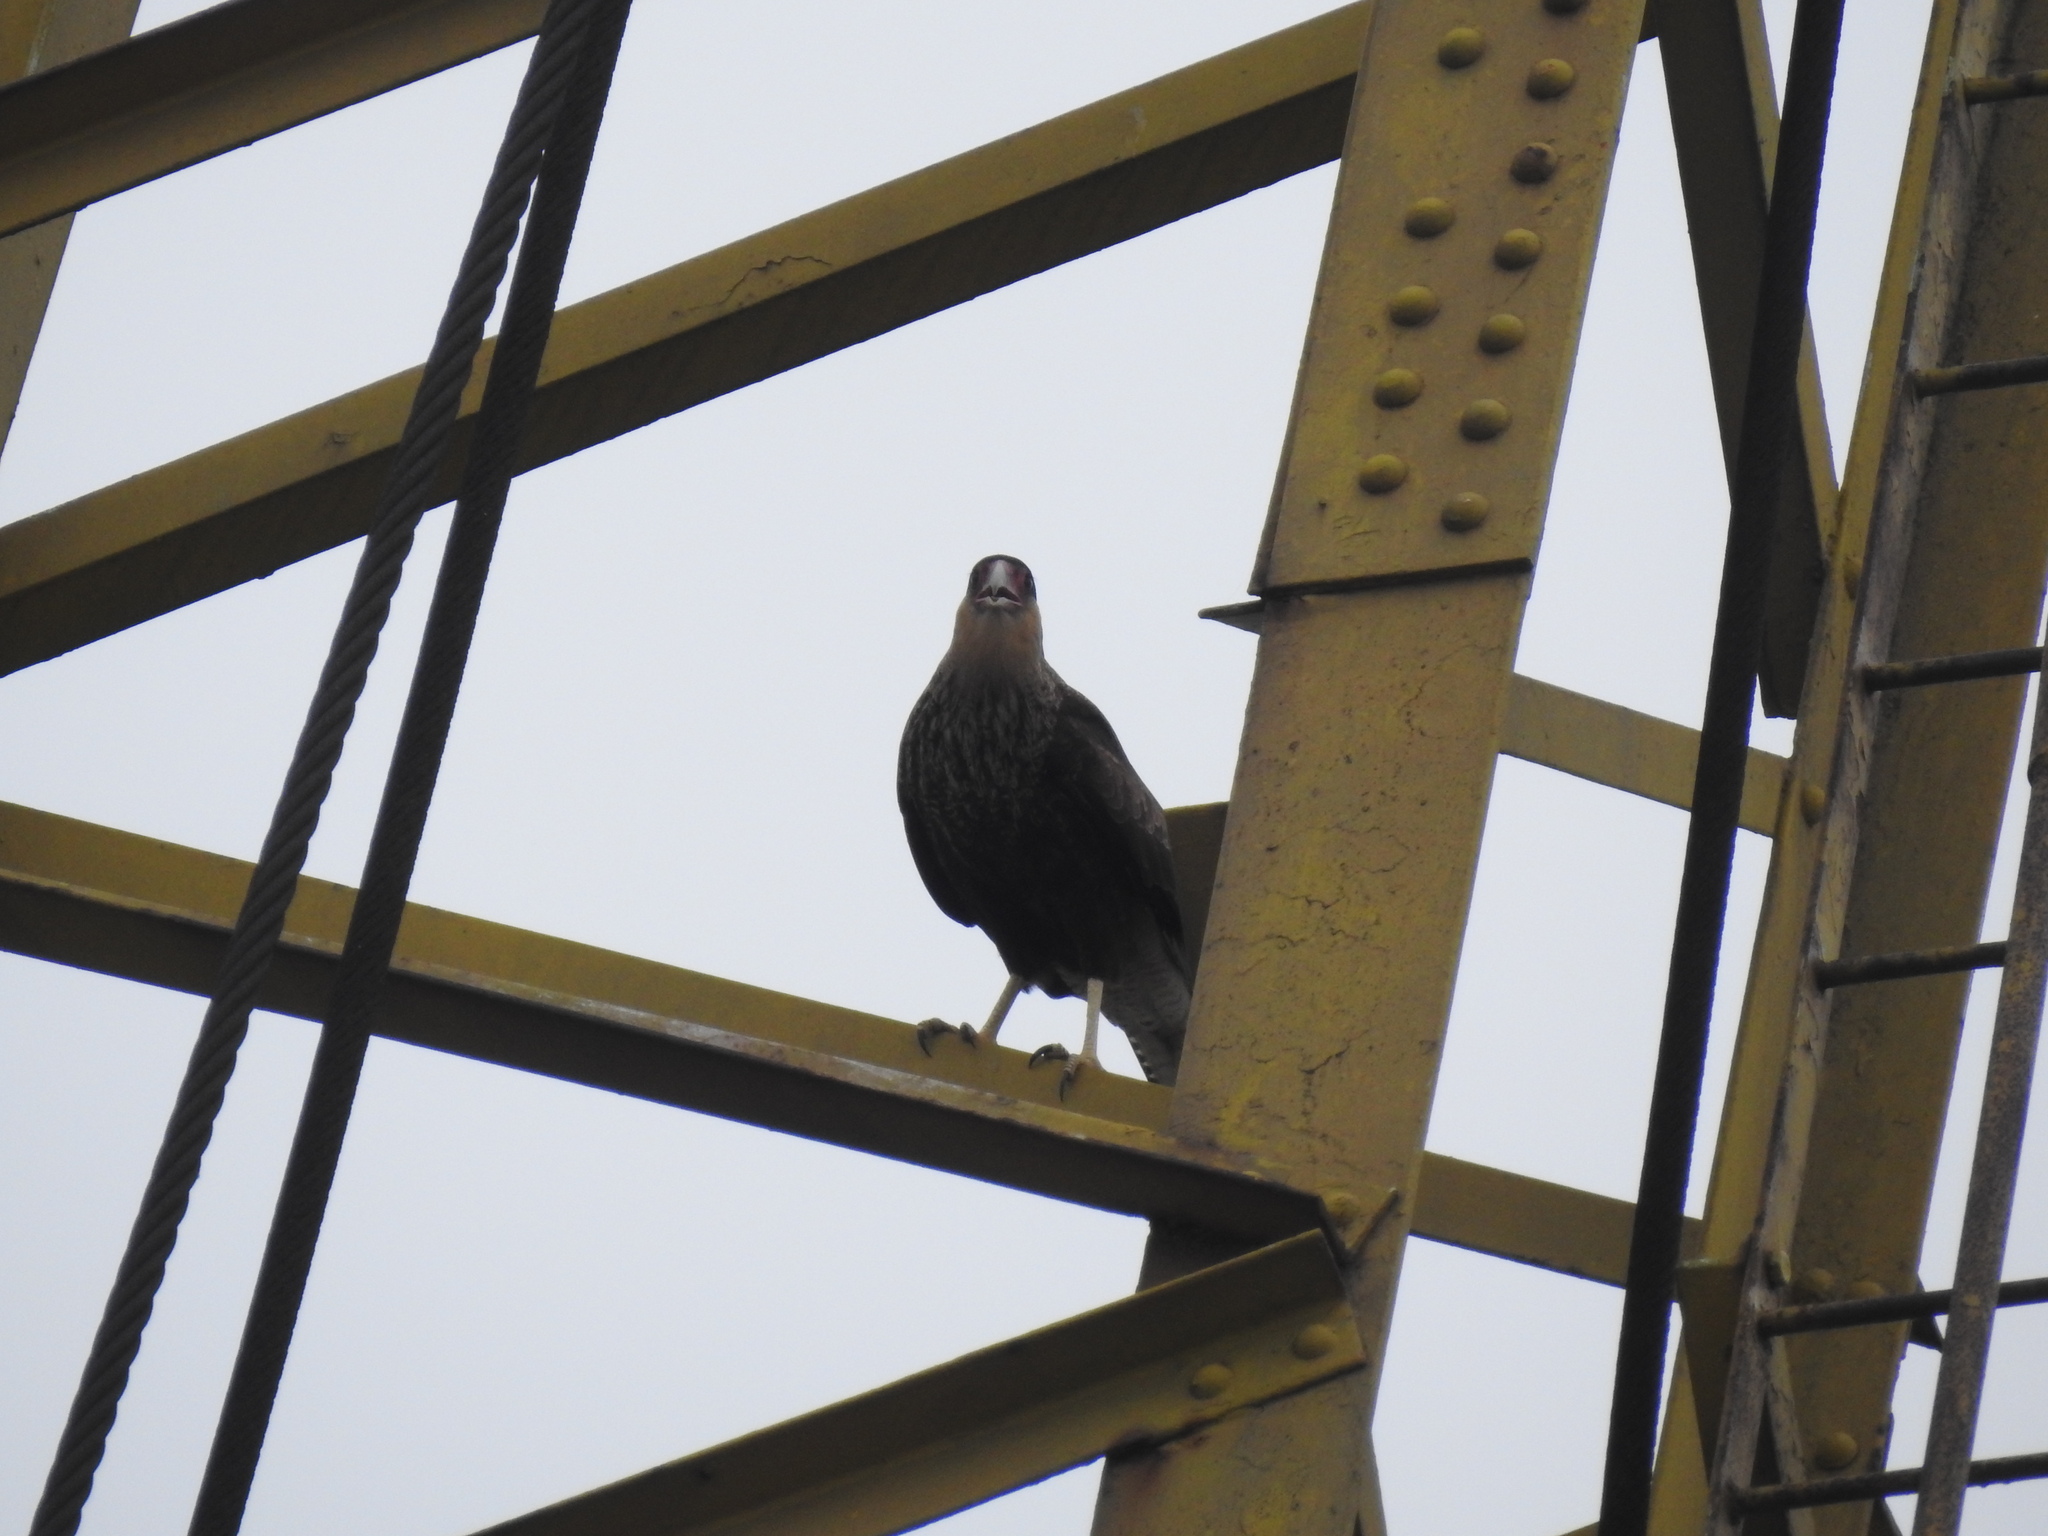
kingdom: Animalia
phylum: Chordata
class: Aves
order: Falconiformes
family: Falconidae
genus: Caracara
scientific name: Caracara plancus
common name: Southern caracara
